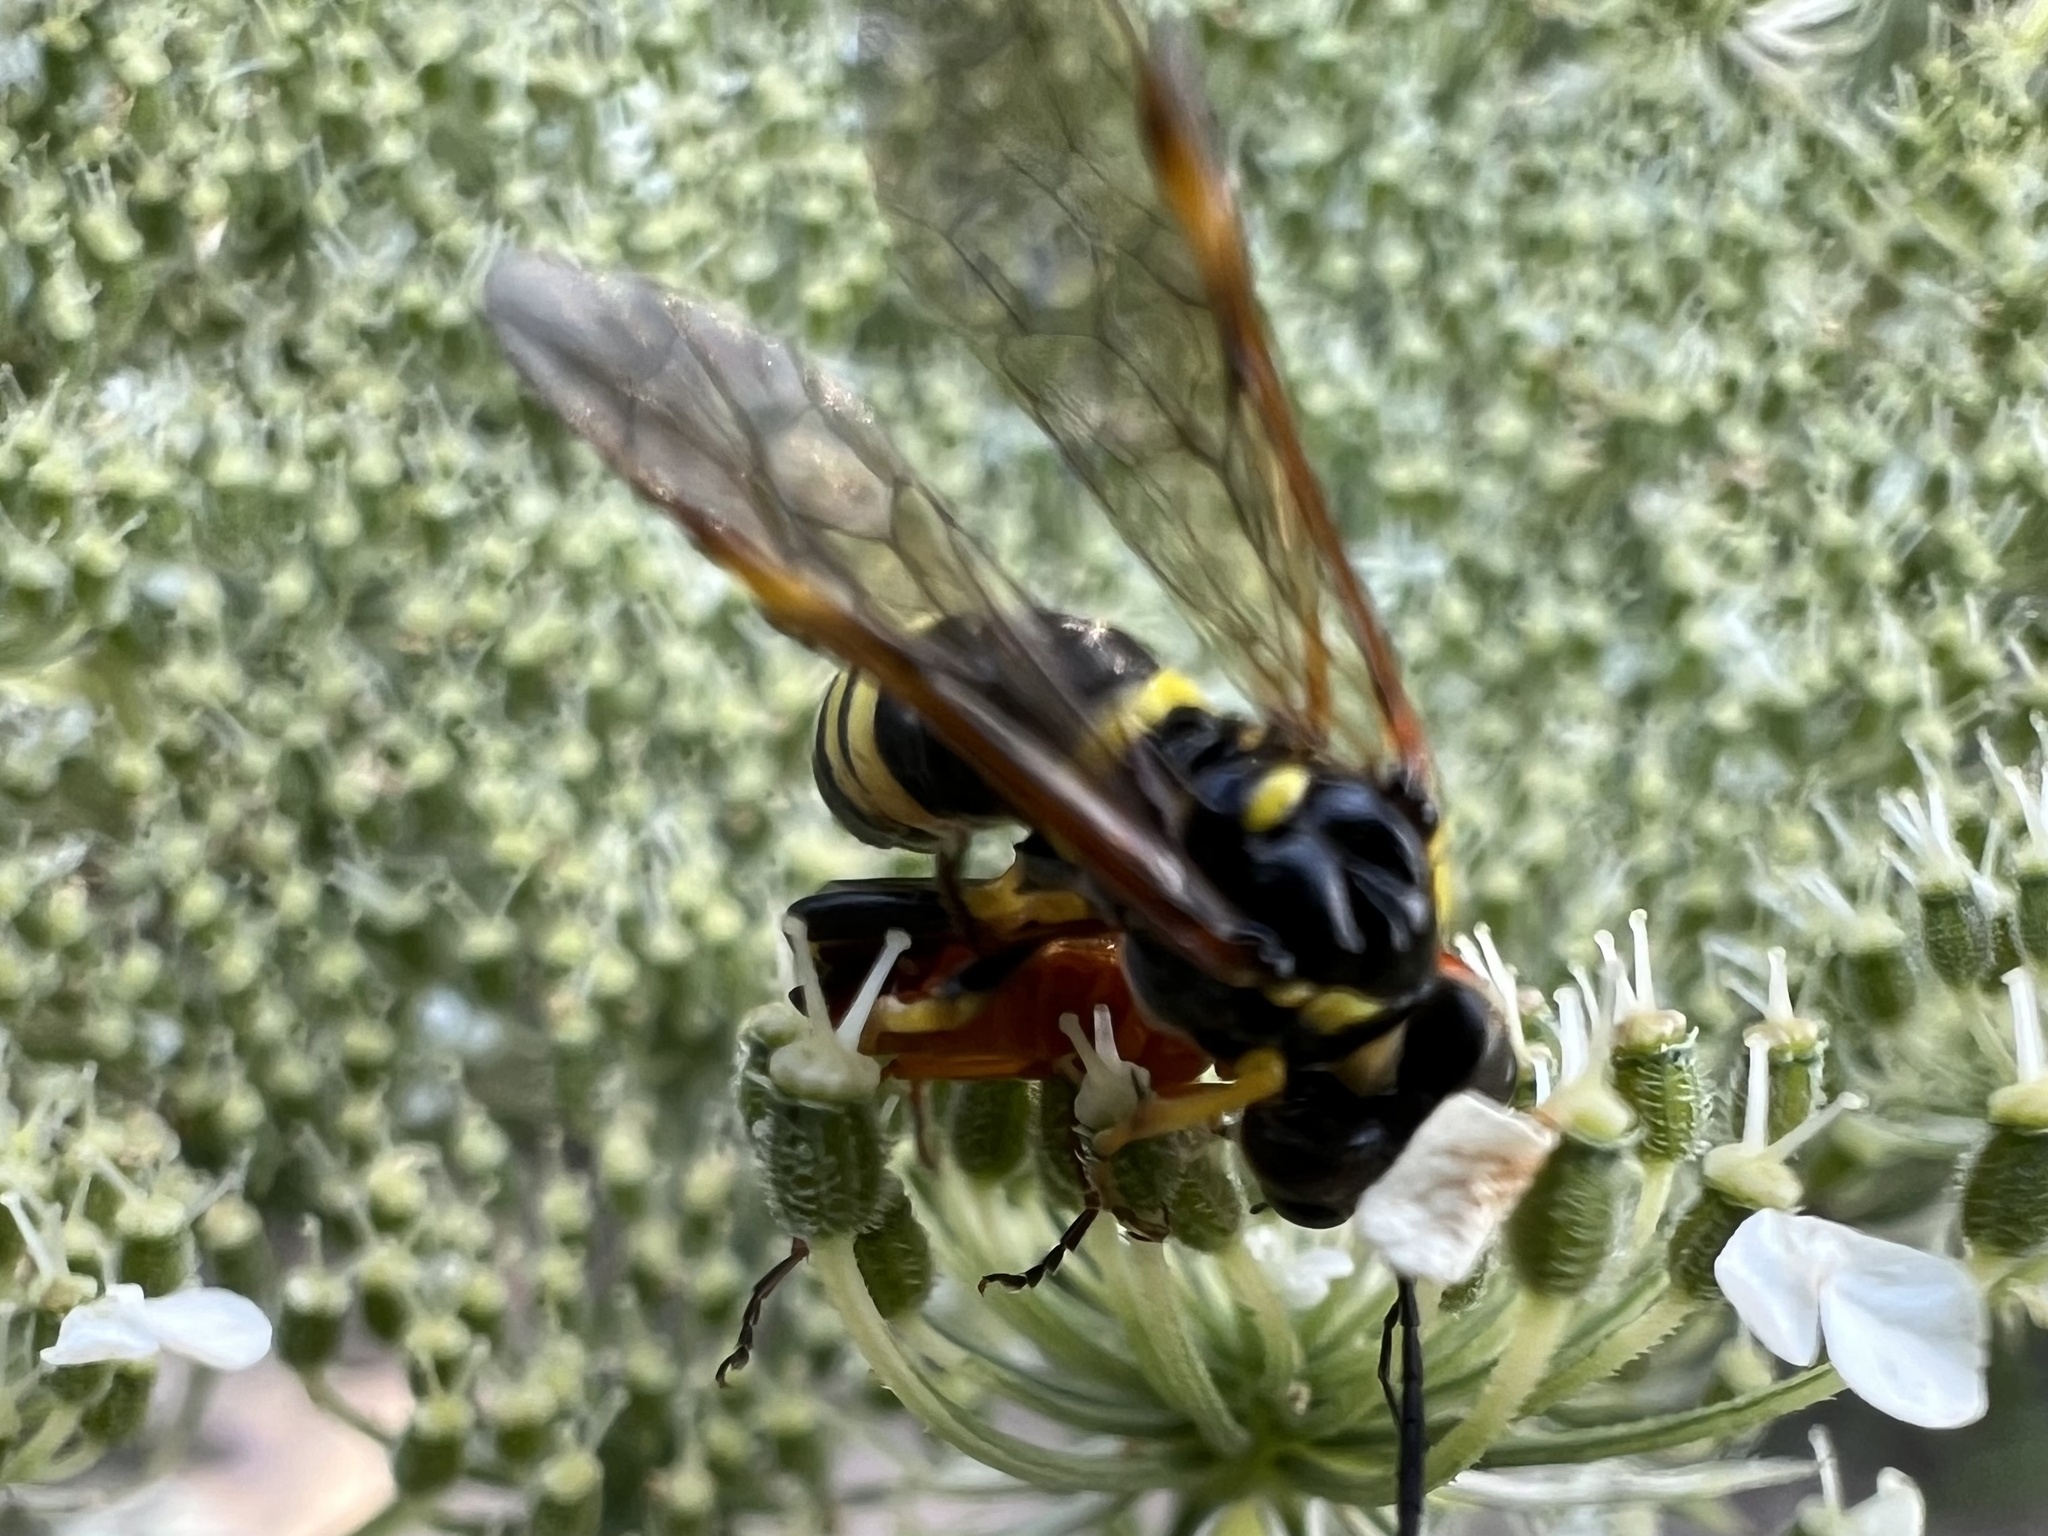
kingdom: Animalia
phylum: Arthropoda
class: Insecta
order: Hymenoptera
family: Tenthredinidae
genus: Tenthredo
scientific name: Tenthredo amoena
